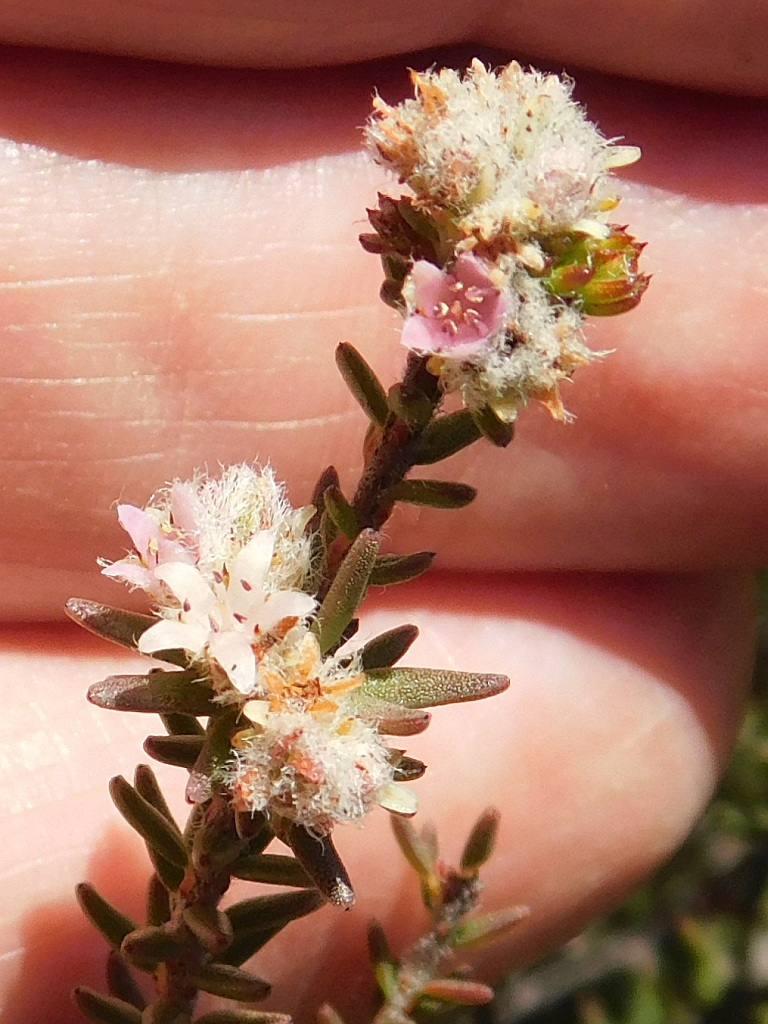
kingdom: Plantae
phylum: Tracheophyta
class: Magnoliopsida
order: Bruniales
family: Bruniaceae
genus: Staavia
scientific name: Staavia capitella
